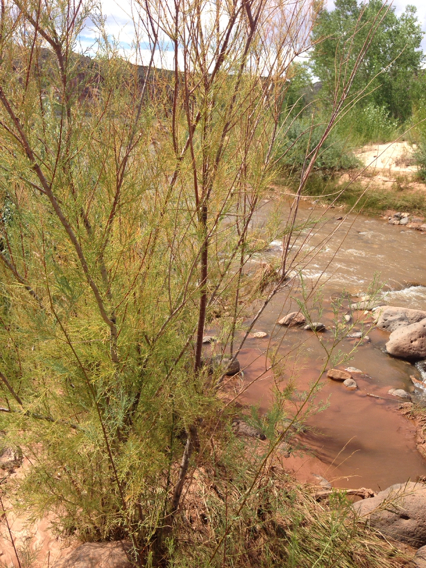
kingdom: Plantae
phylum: Tracheophyta
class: Magnoliopsida
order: Caryophyllales
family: Tamaricaceae
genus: Tamarix
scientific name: Tamarix ramosissima
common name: Pink tamarisk
